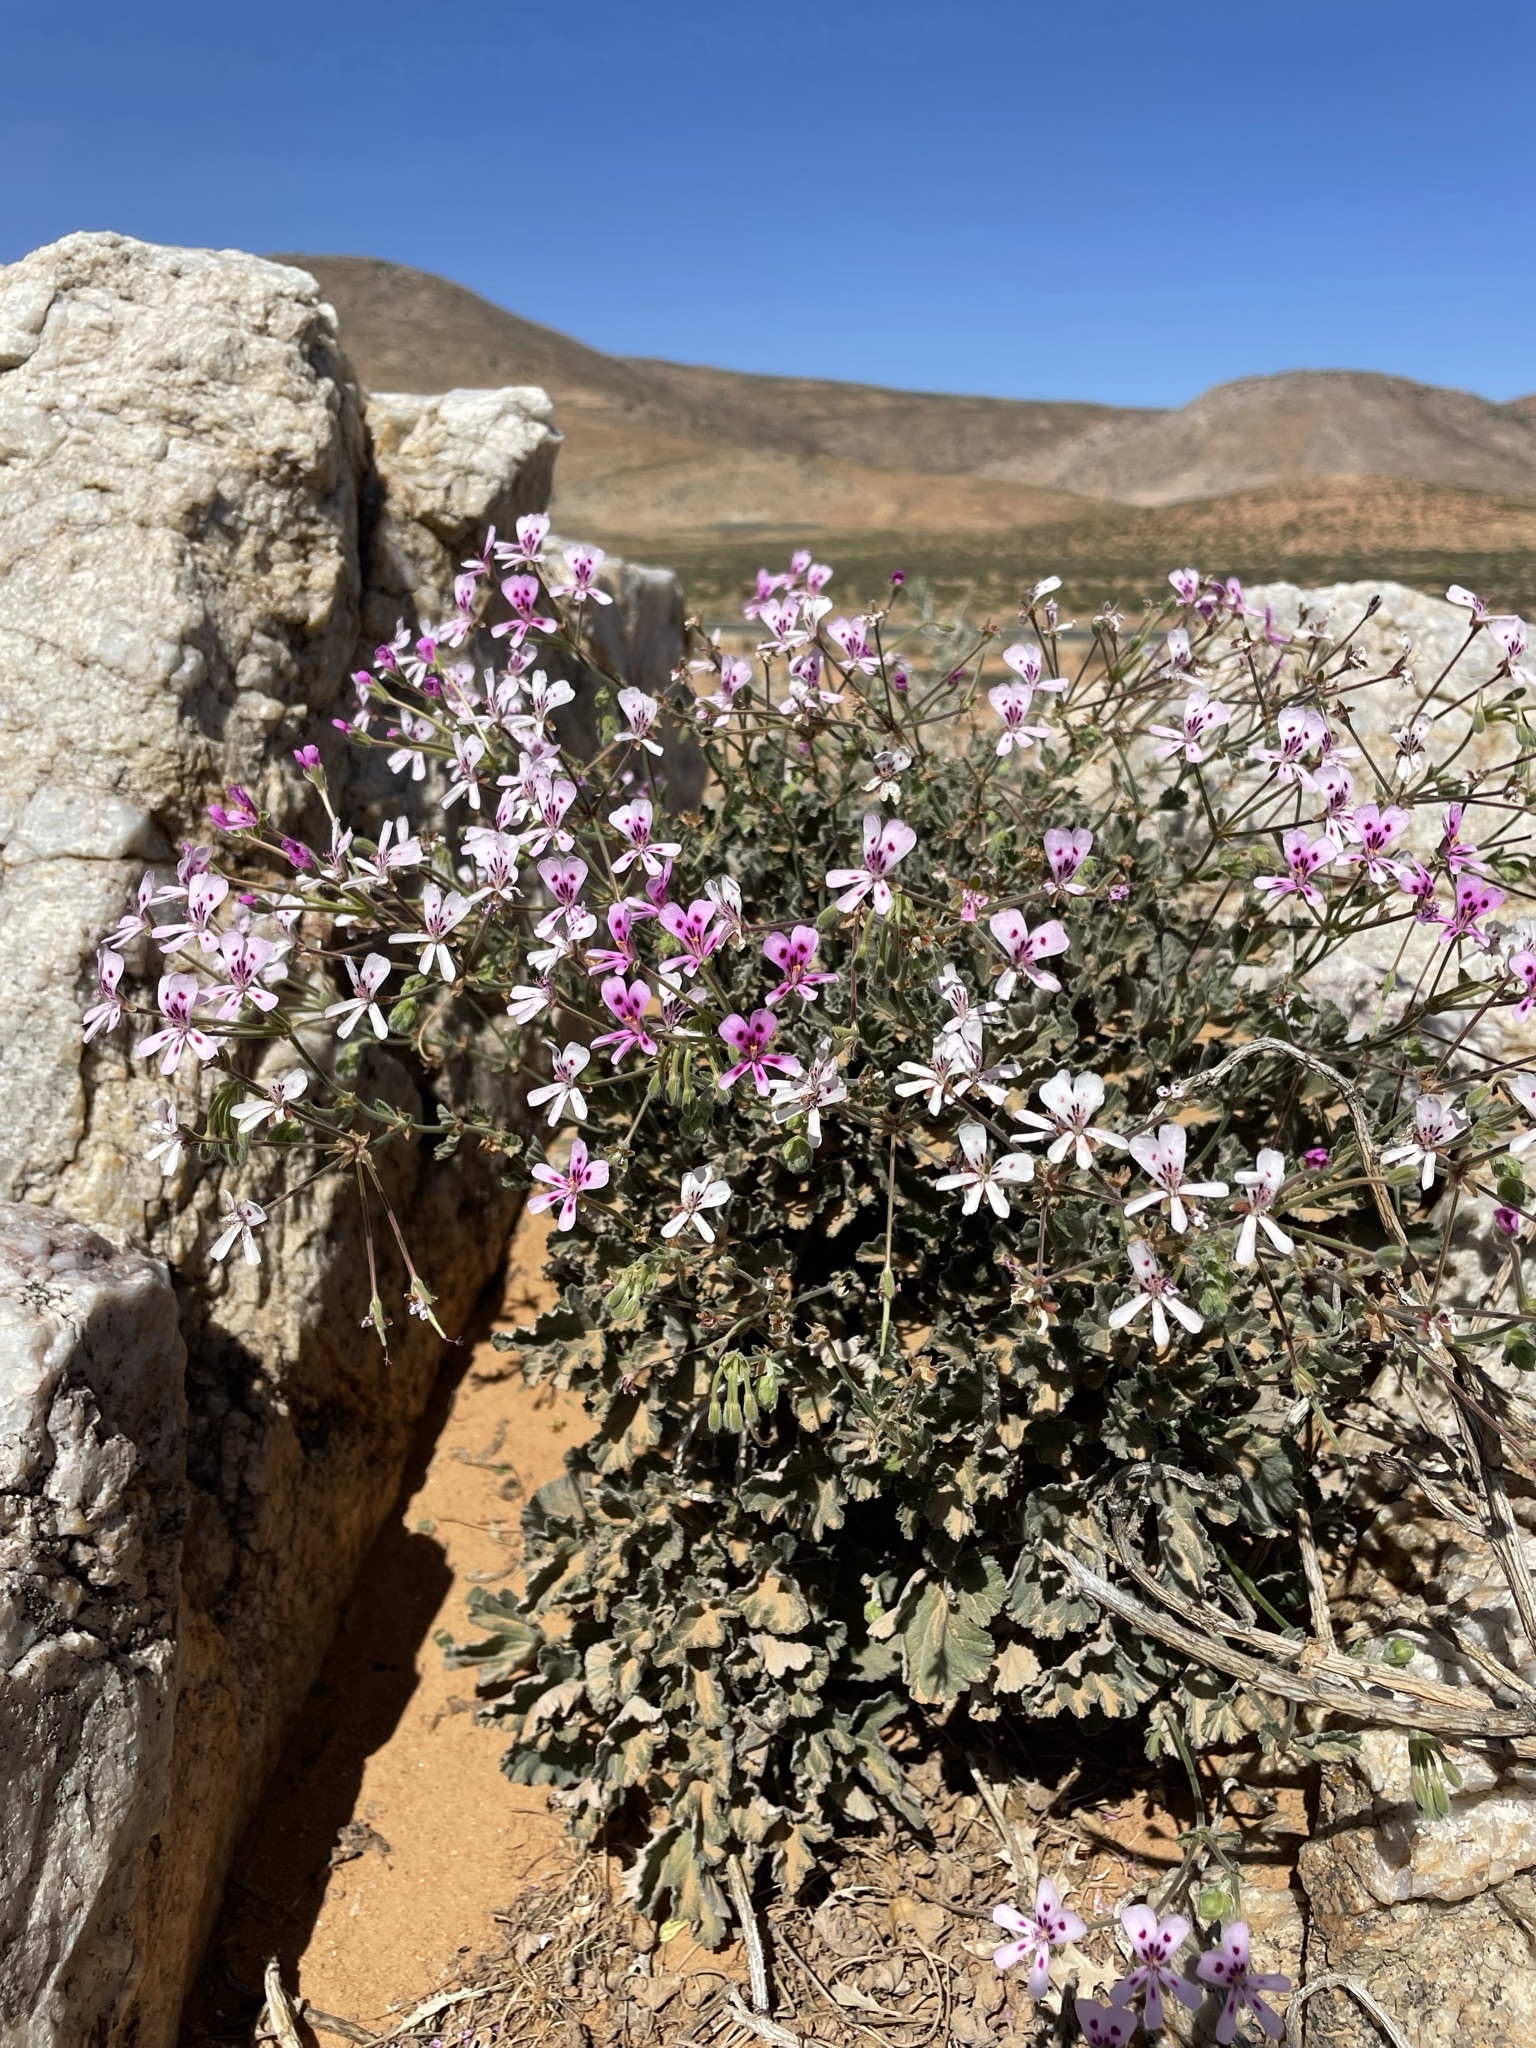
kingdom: Plantae
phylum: Tracheophyta
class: Magnoliopsida
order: Geraniales
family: Geraniaceae
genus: Pelargonium
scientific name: Pelargonium echinatum
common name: Cactus geranium
